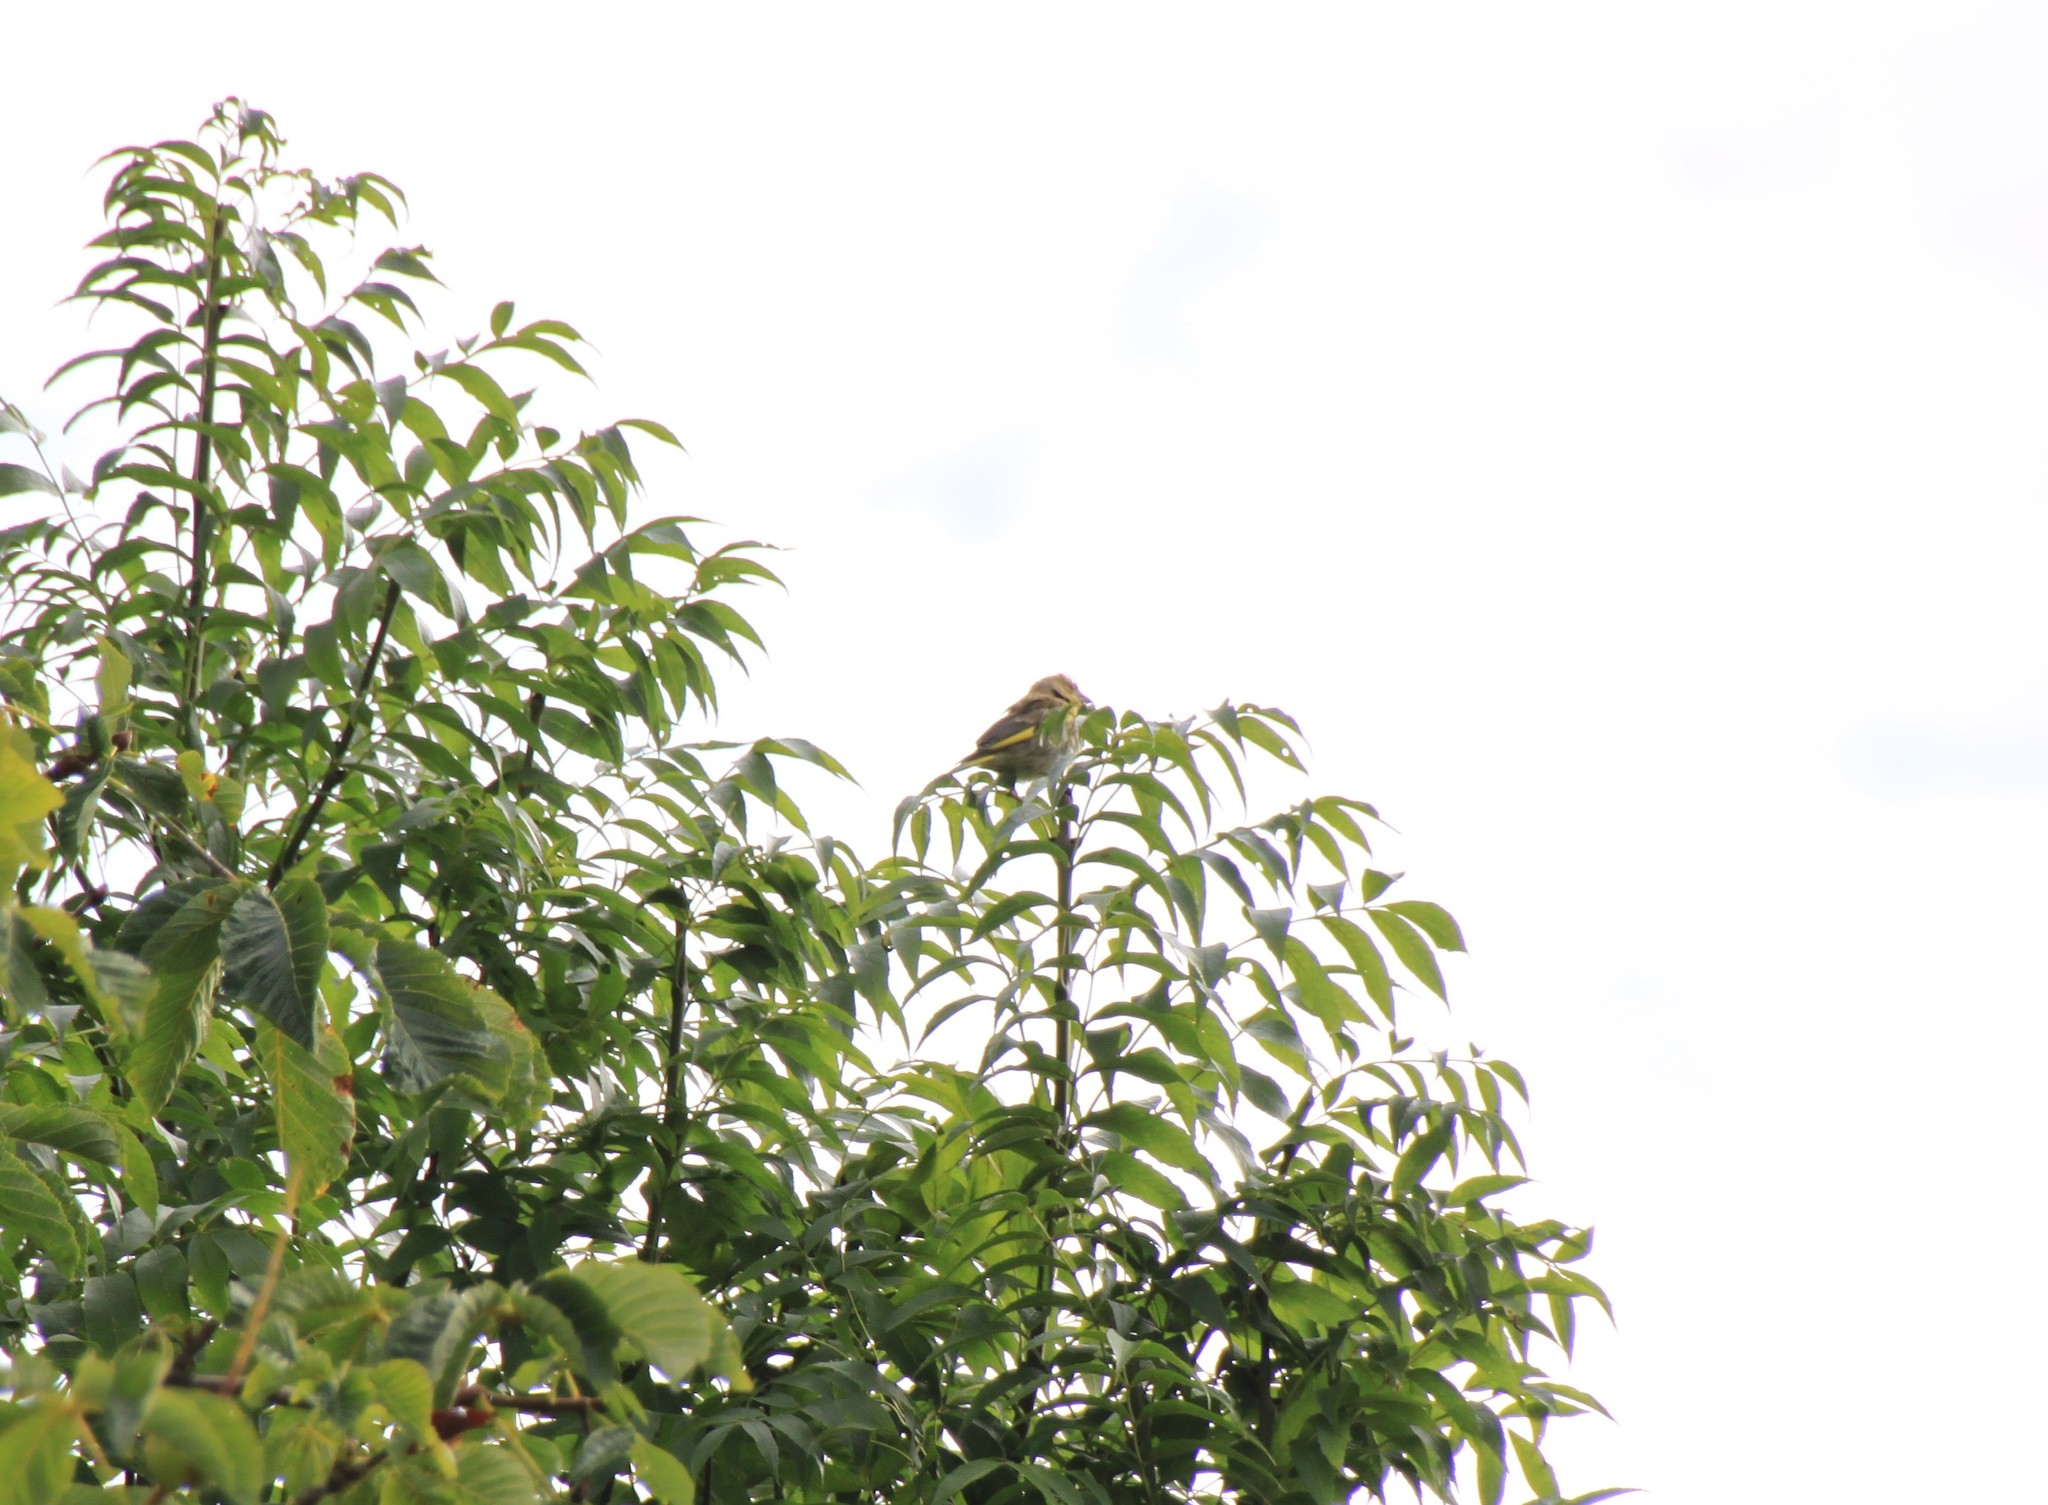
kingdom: Plantae
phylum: Tracheophyta
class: Liliopsida
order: Poales
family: Poaceae
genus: Chloris
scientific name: Chloris chloris
